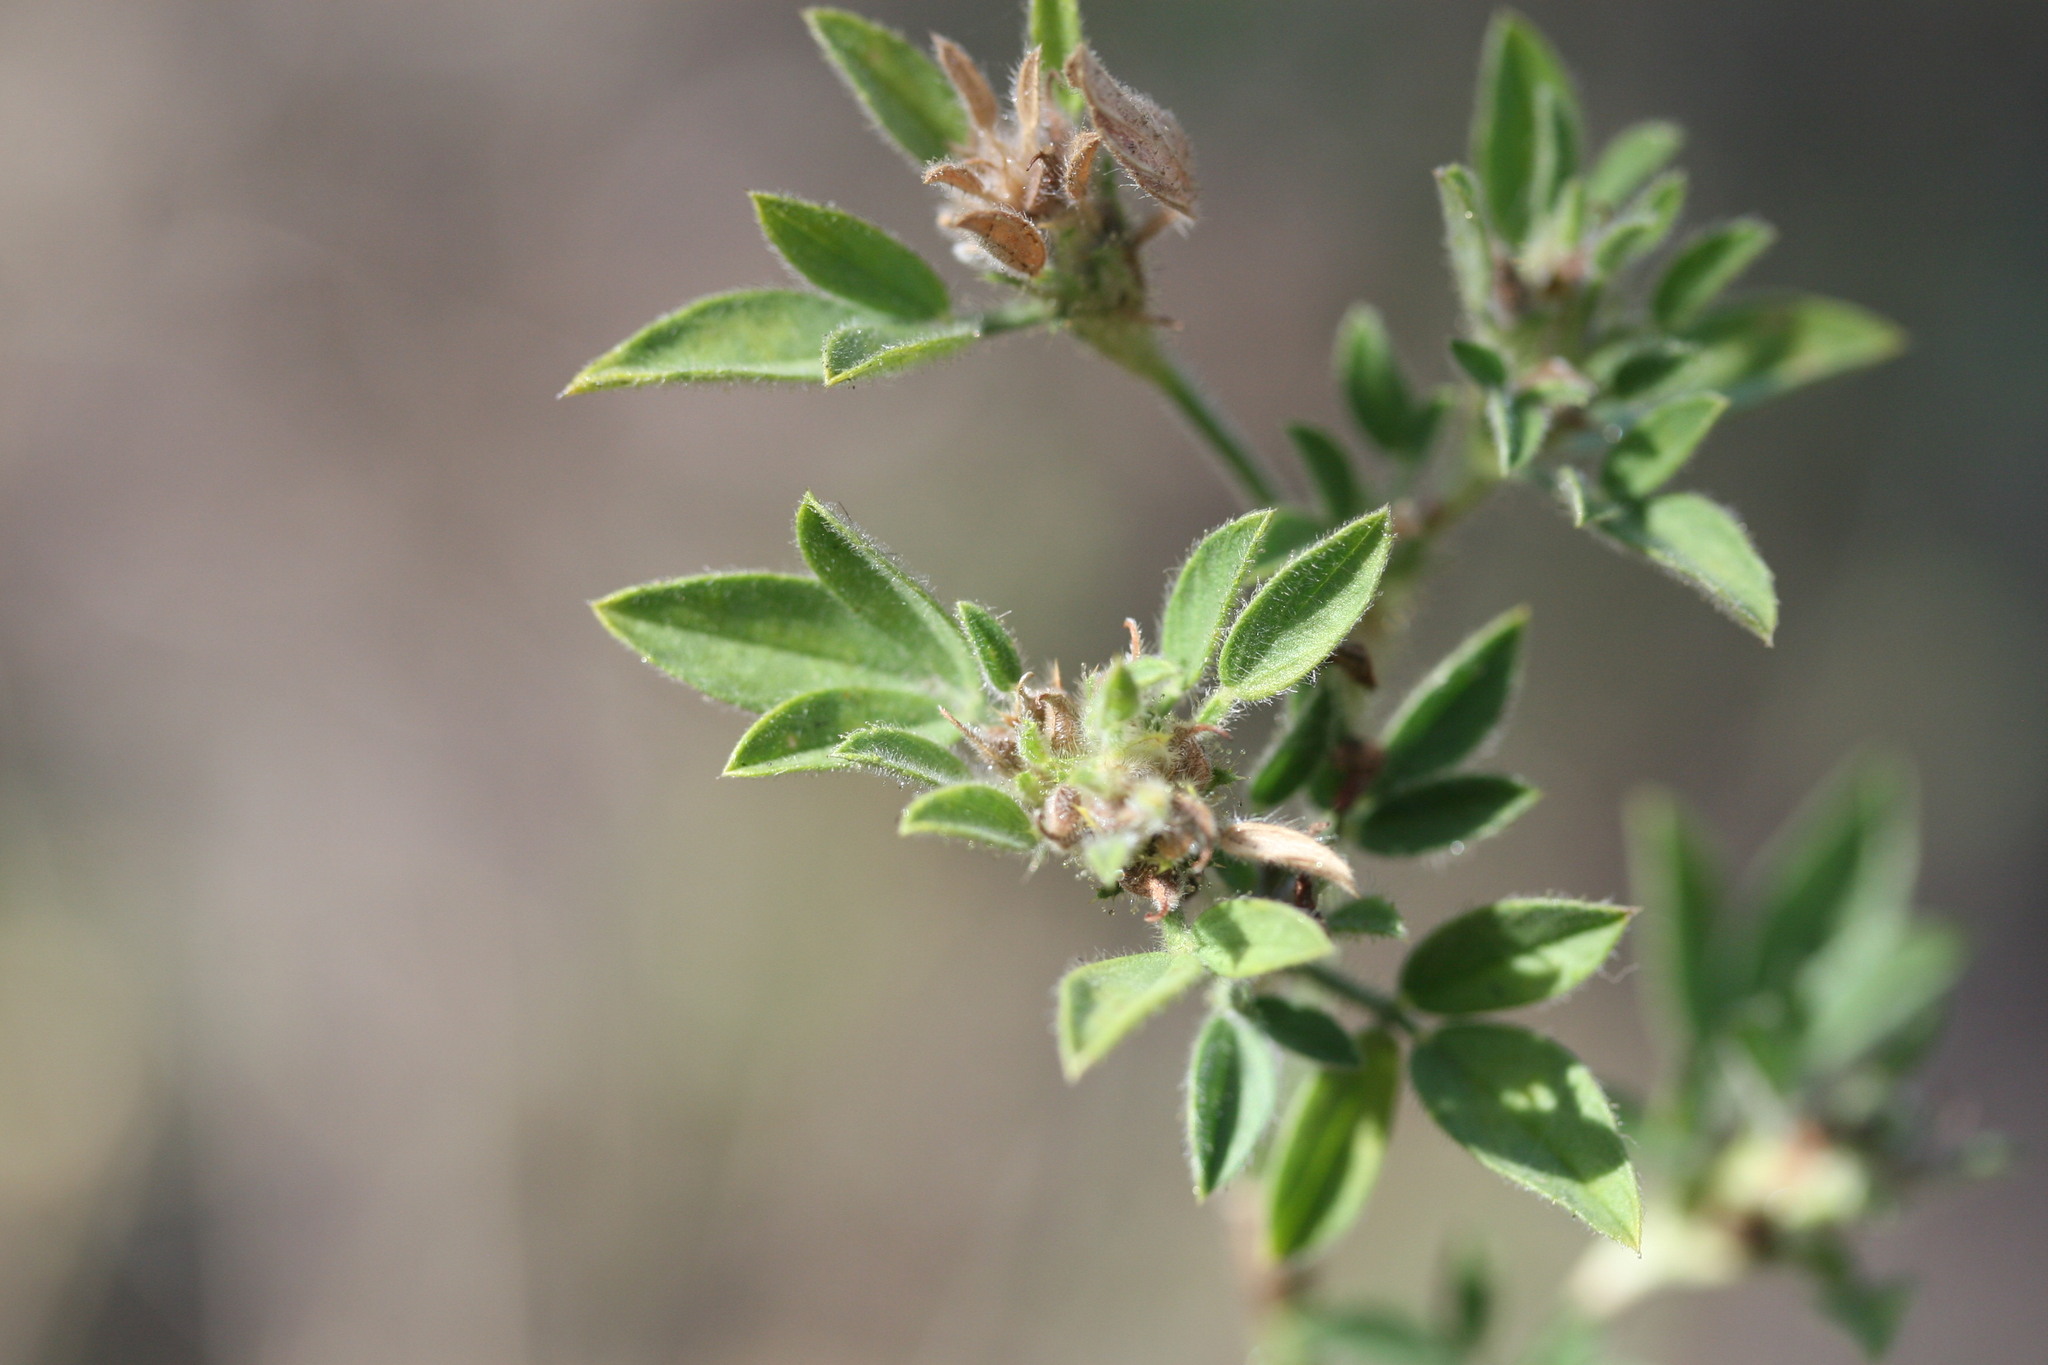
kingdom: Plantae
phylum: Tracheophyta
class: Magnoliopsida
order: Fabales
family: Fabaceae
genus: Stylosanthes
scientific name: Stylosanthes scabra
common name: Pencilflower
